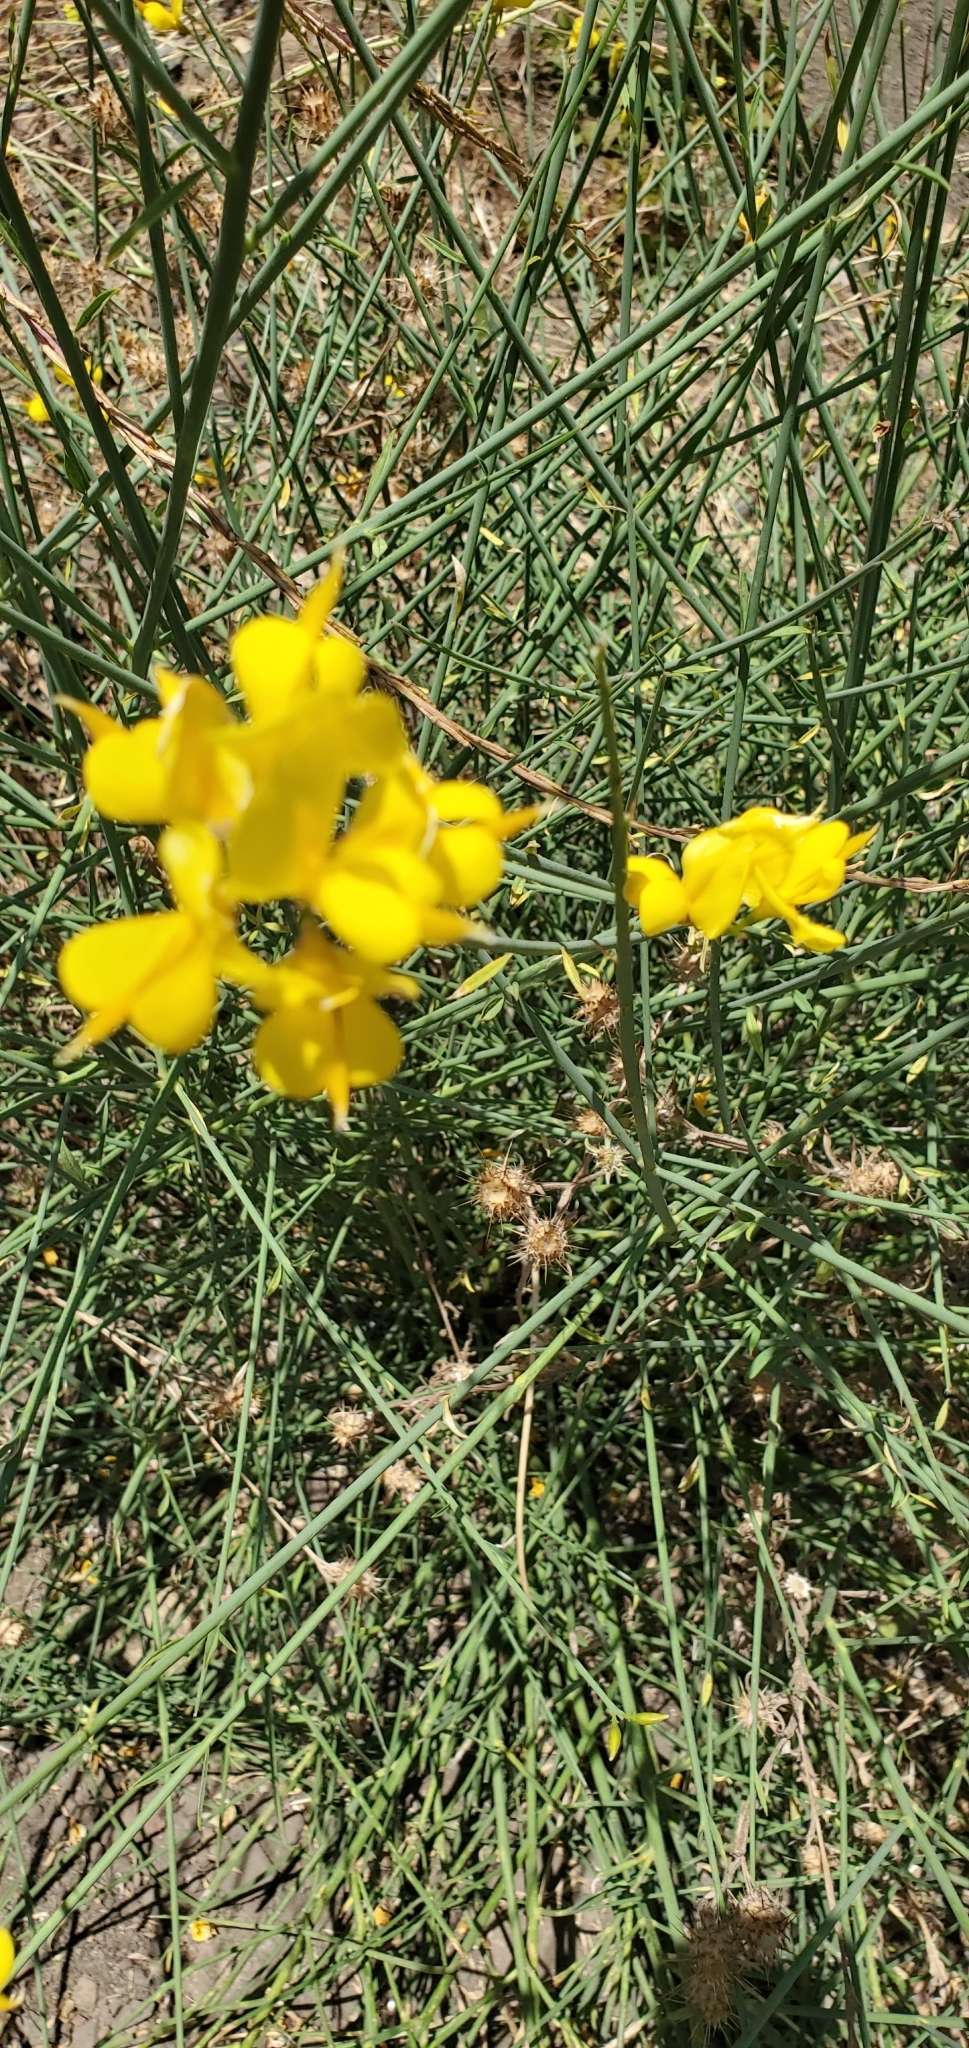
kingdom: Plantae
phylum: Tracheophyta
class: Magnoliopsida
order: Fabales
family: Fabaceae
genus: Spartium
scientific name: Spartium junceum
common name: Spanish broom
